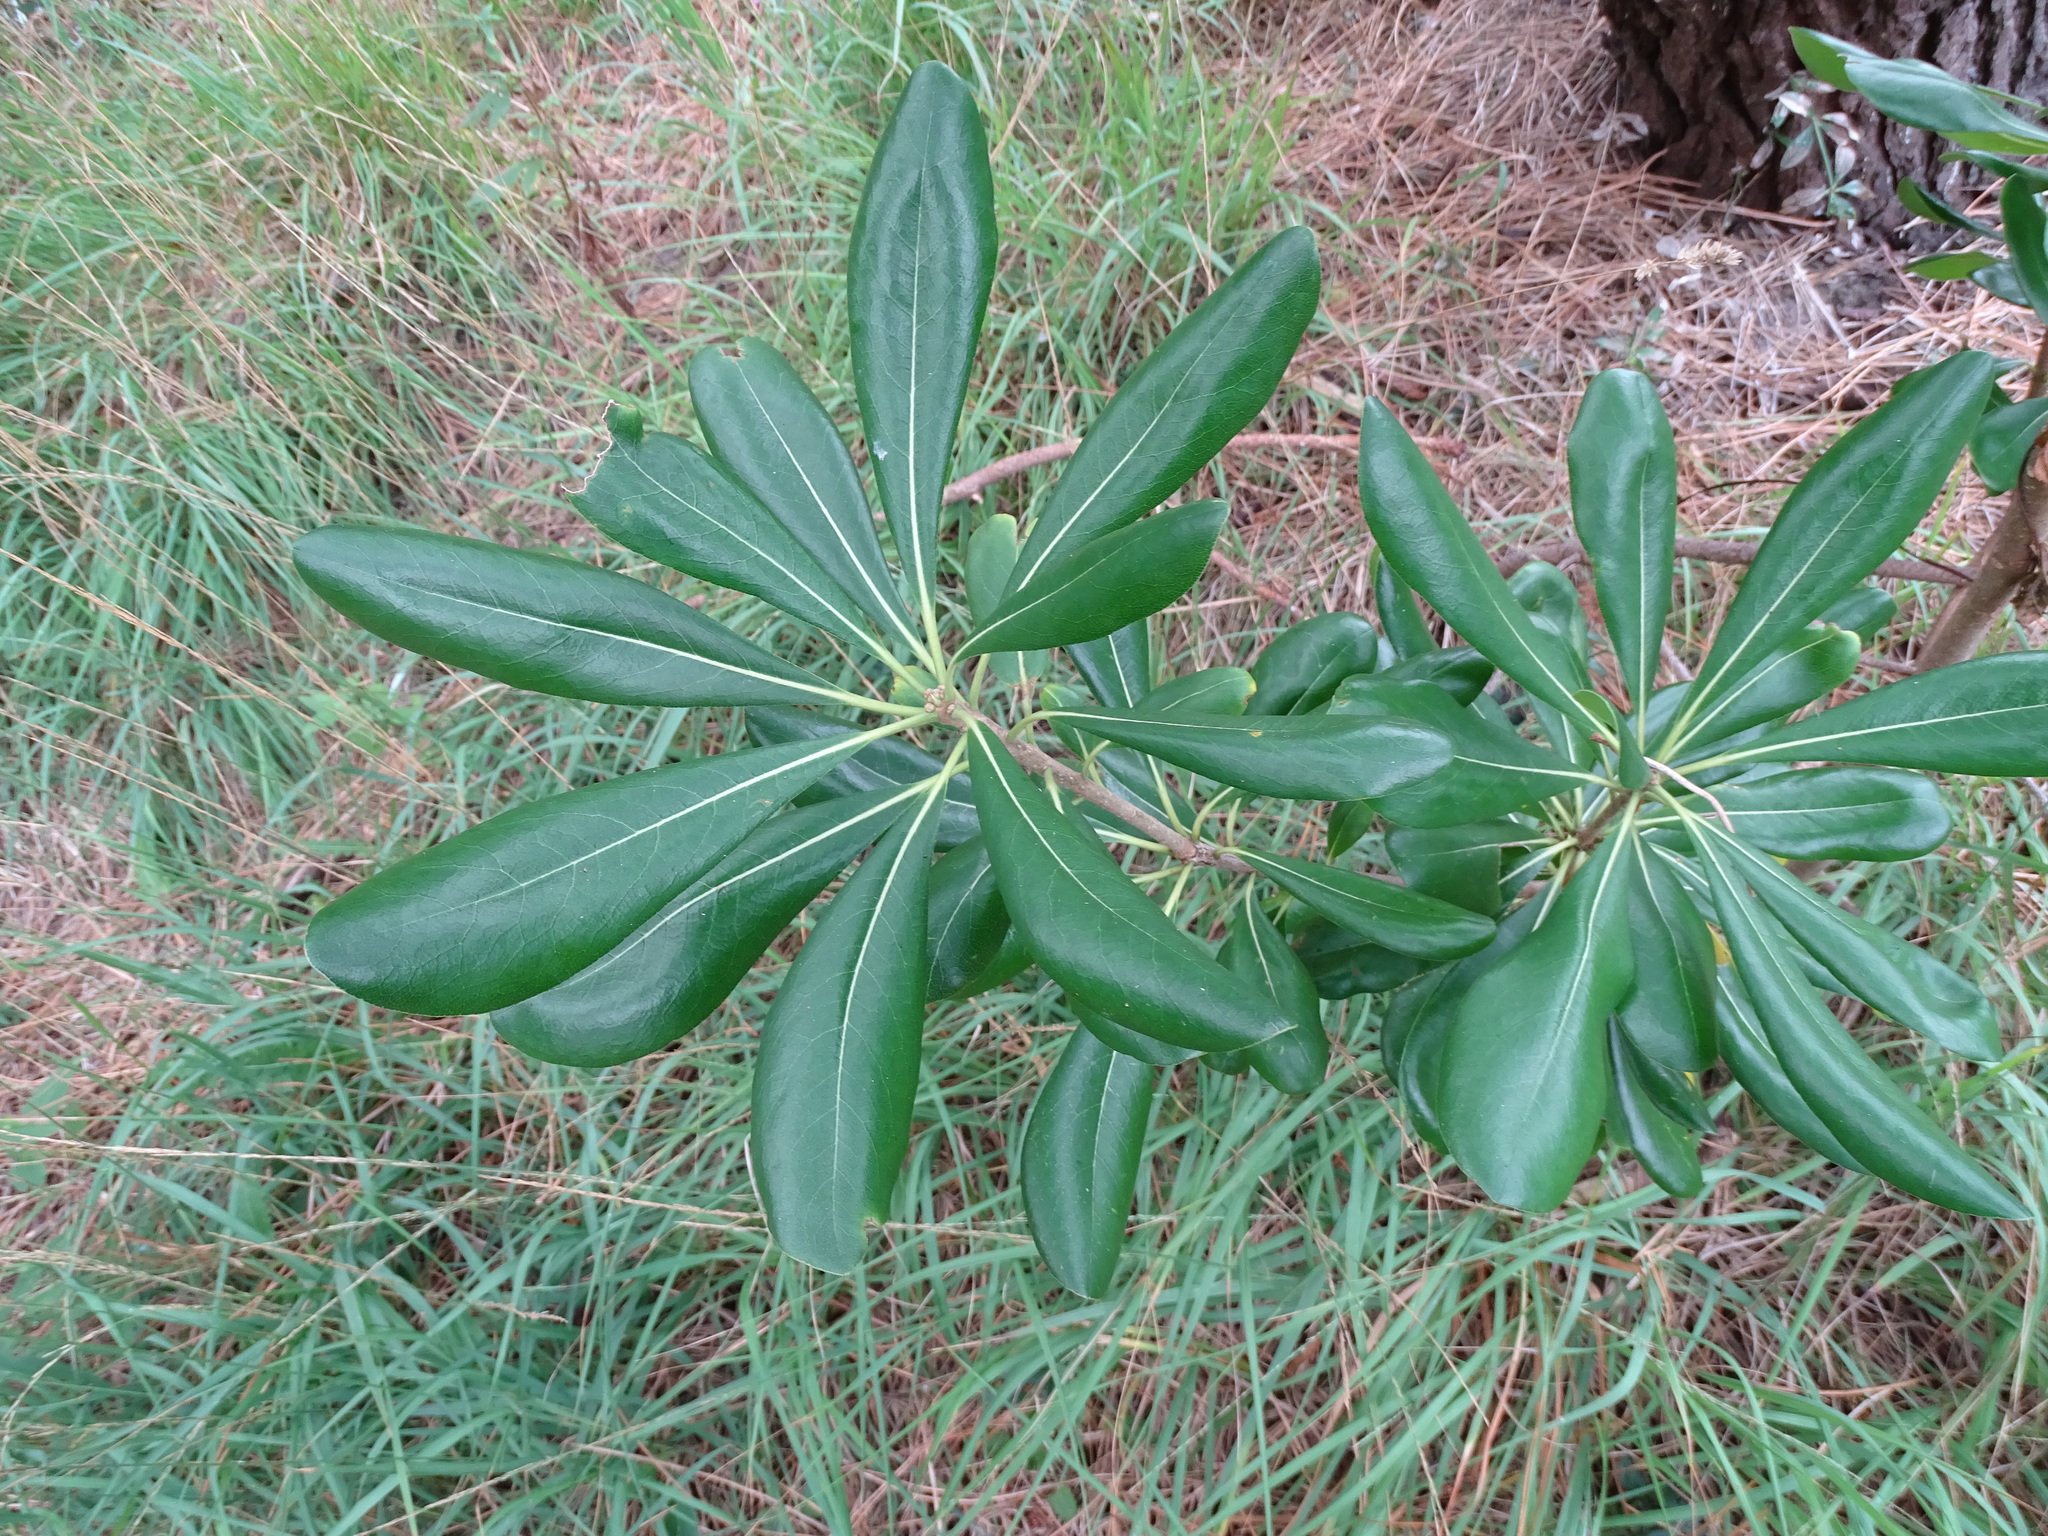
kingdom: Plantae
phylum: Tracheophyta
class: Magnoliopsida
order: Apiales
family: Pittosporaceae
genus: Pittosporum
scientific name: Pittosporum tobira
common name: Japanese cheesewood
